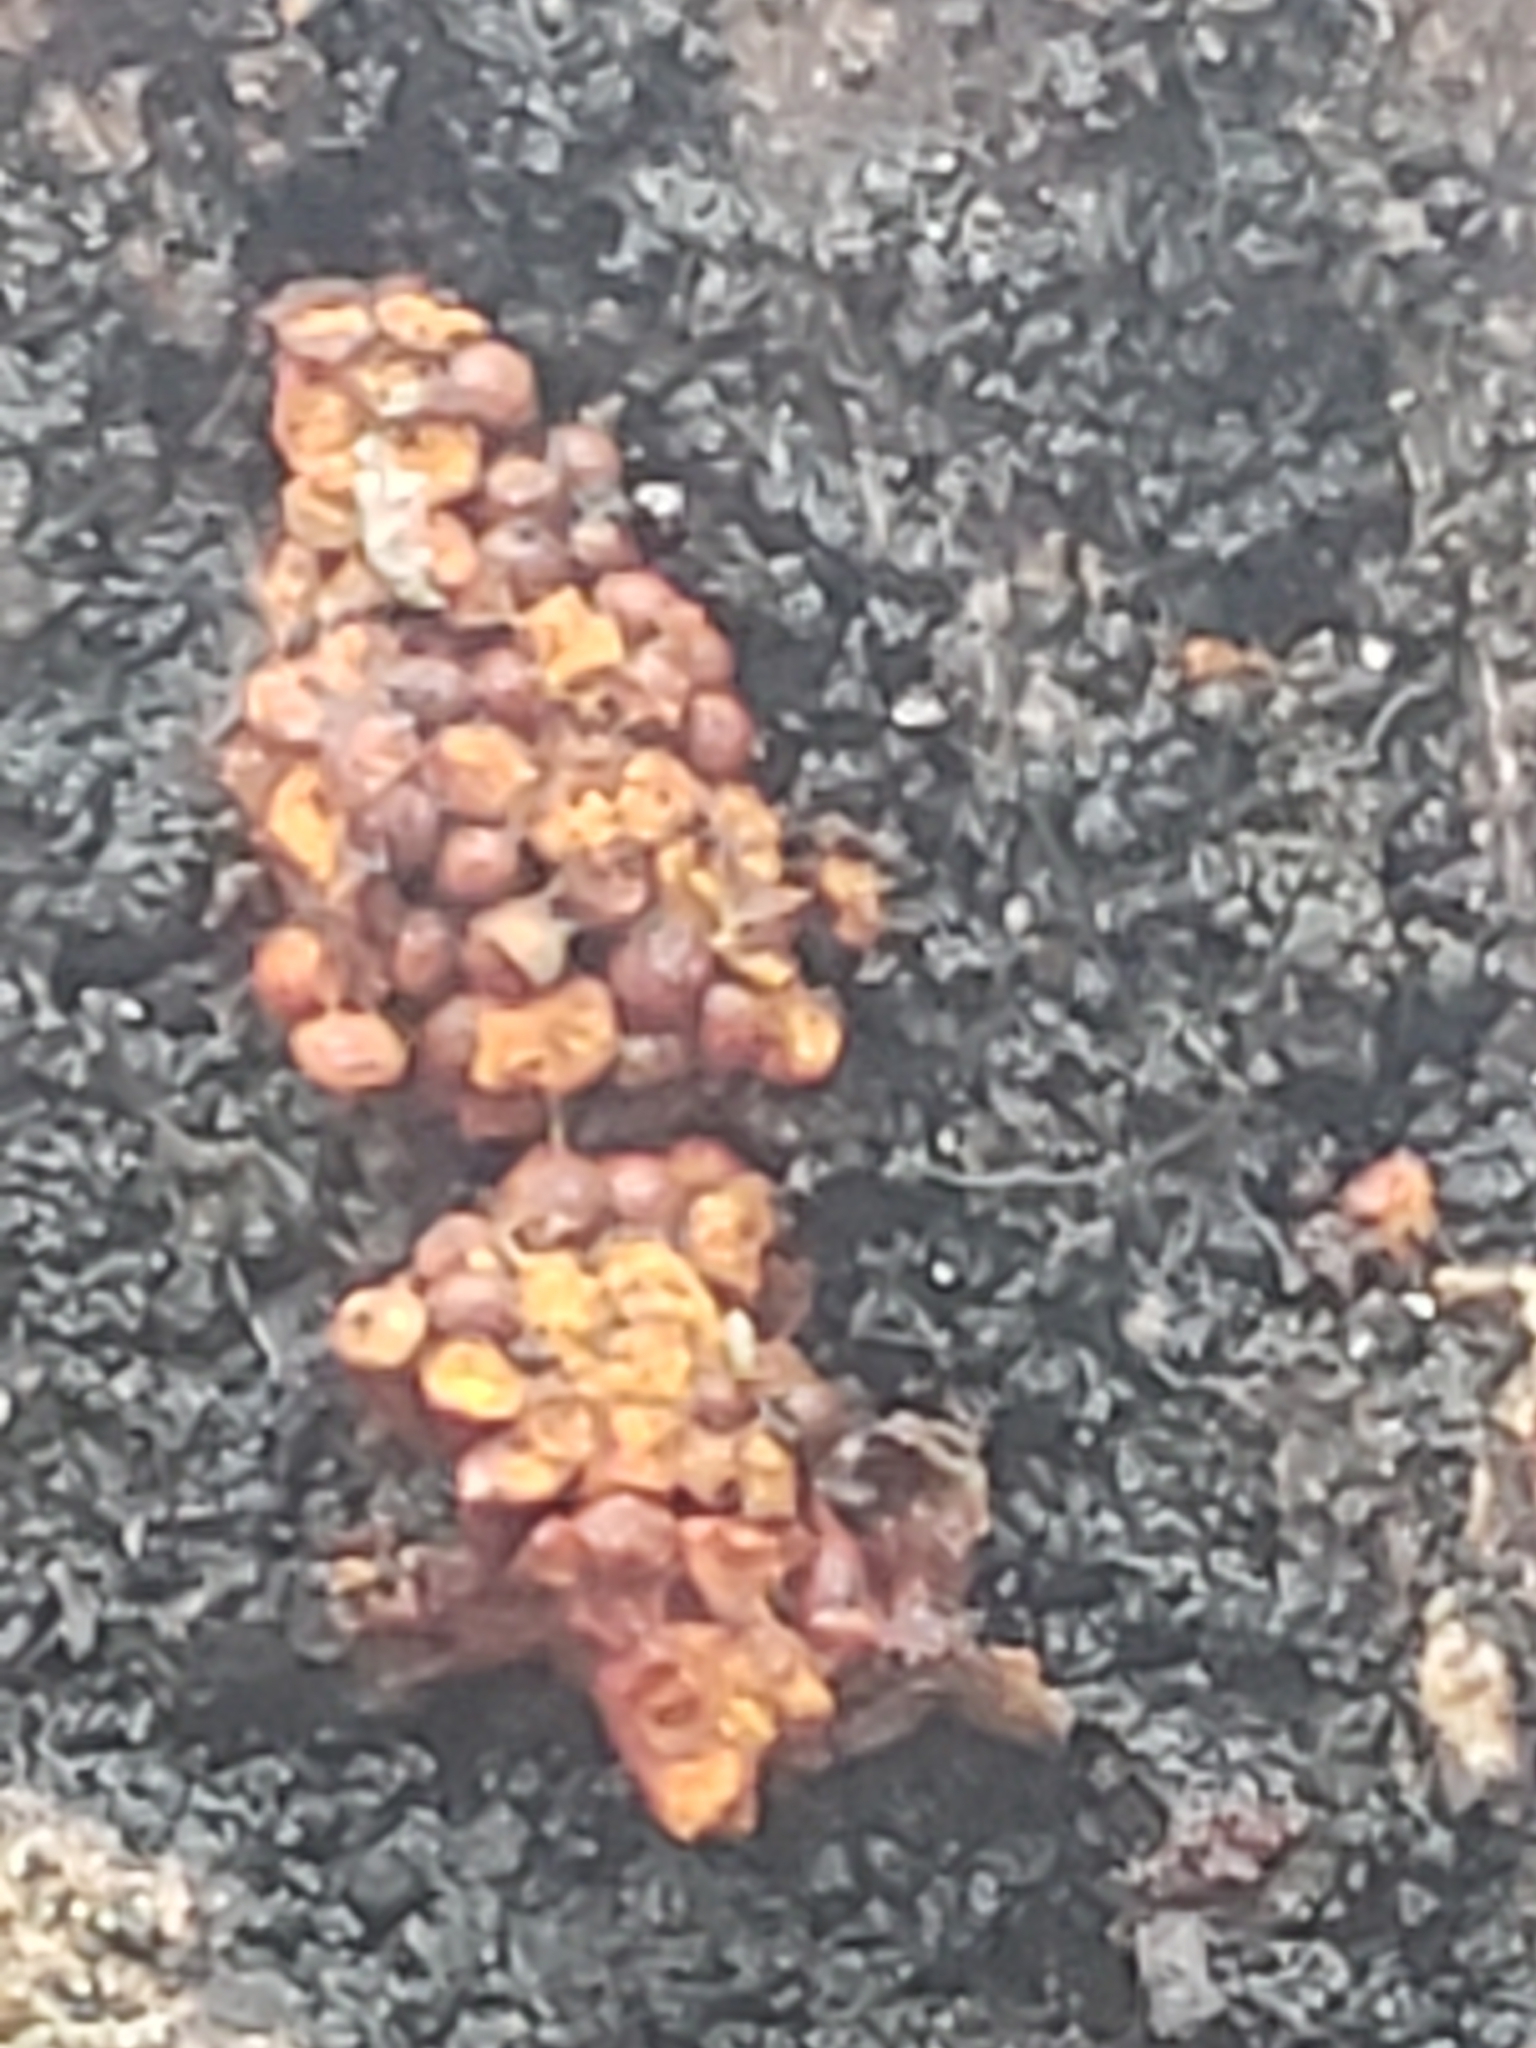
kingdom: Protozoa
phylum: Mycetozoa
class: Myxomycetes
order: Trichiales
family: Trichiaceae
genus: Metatrichia
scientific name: Metatrichia vesparia
